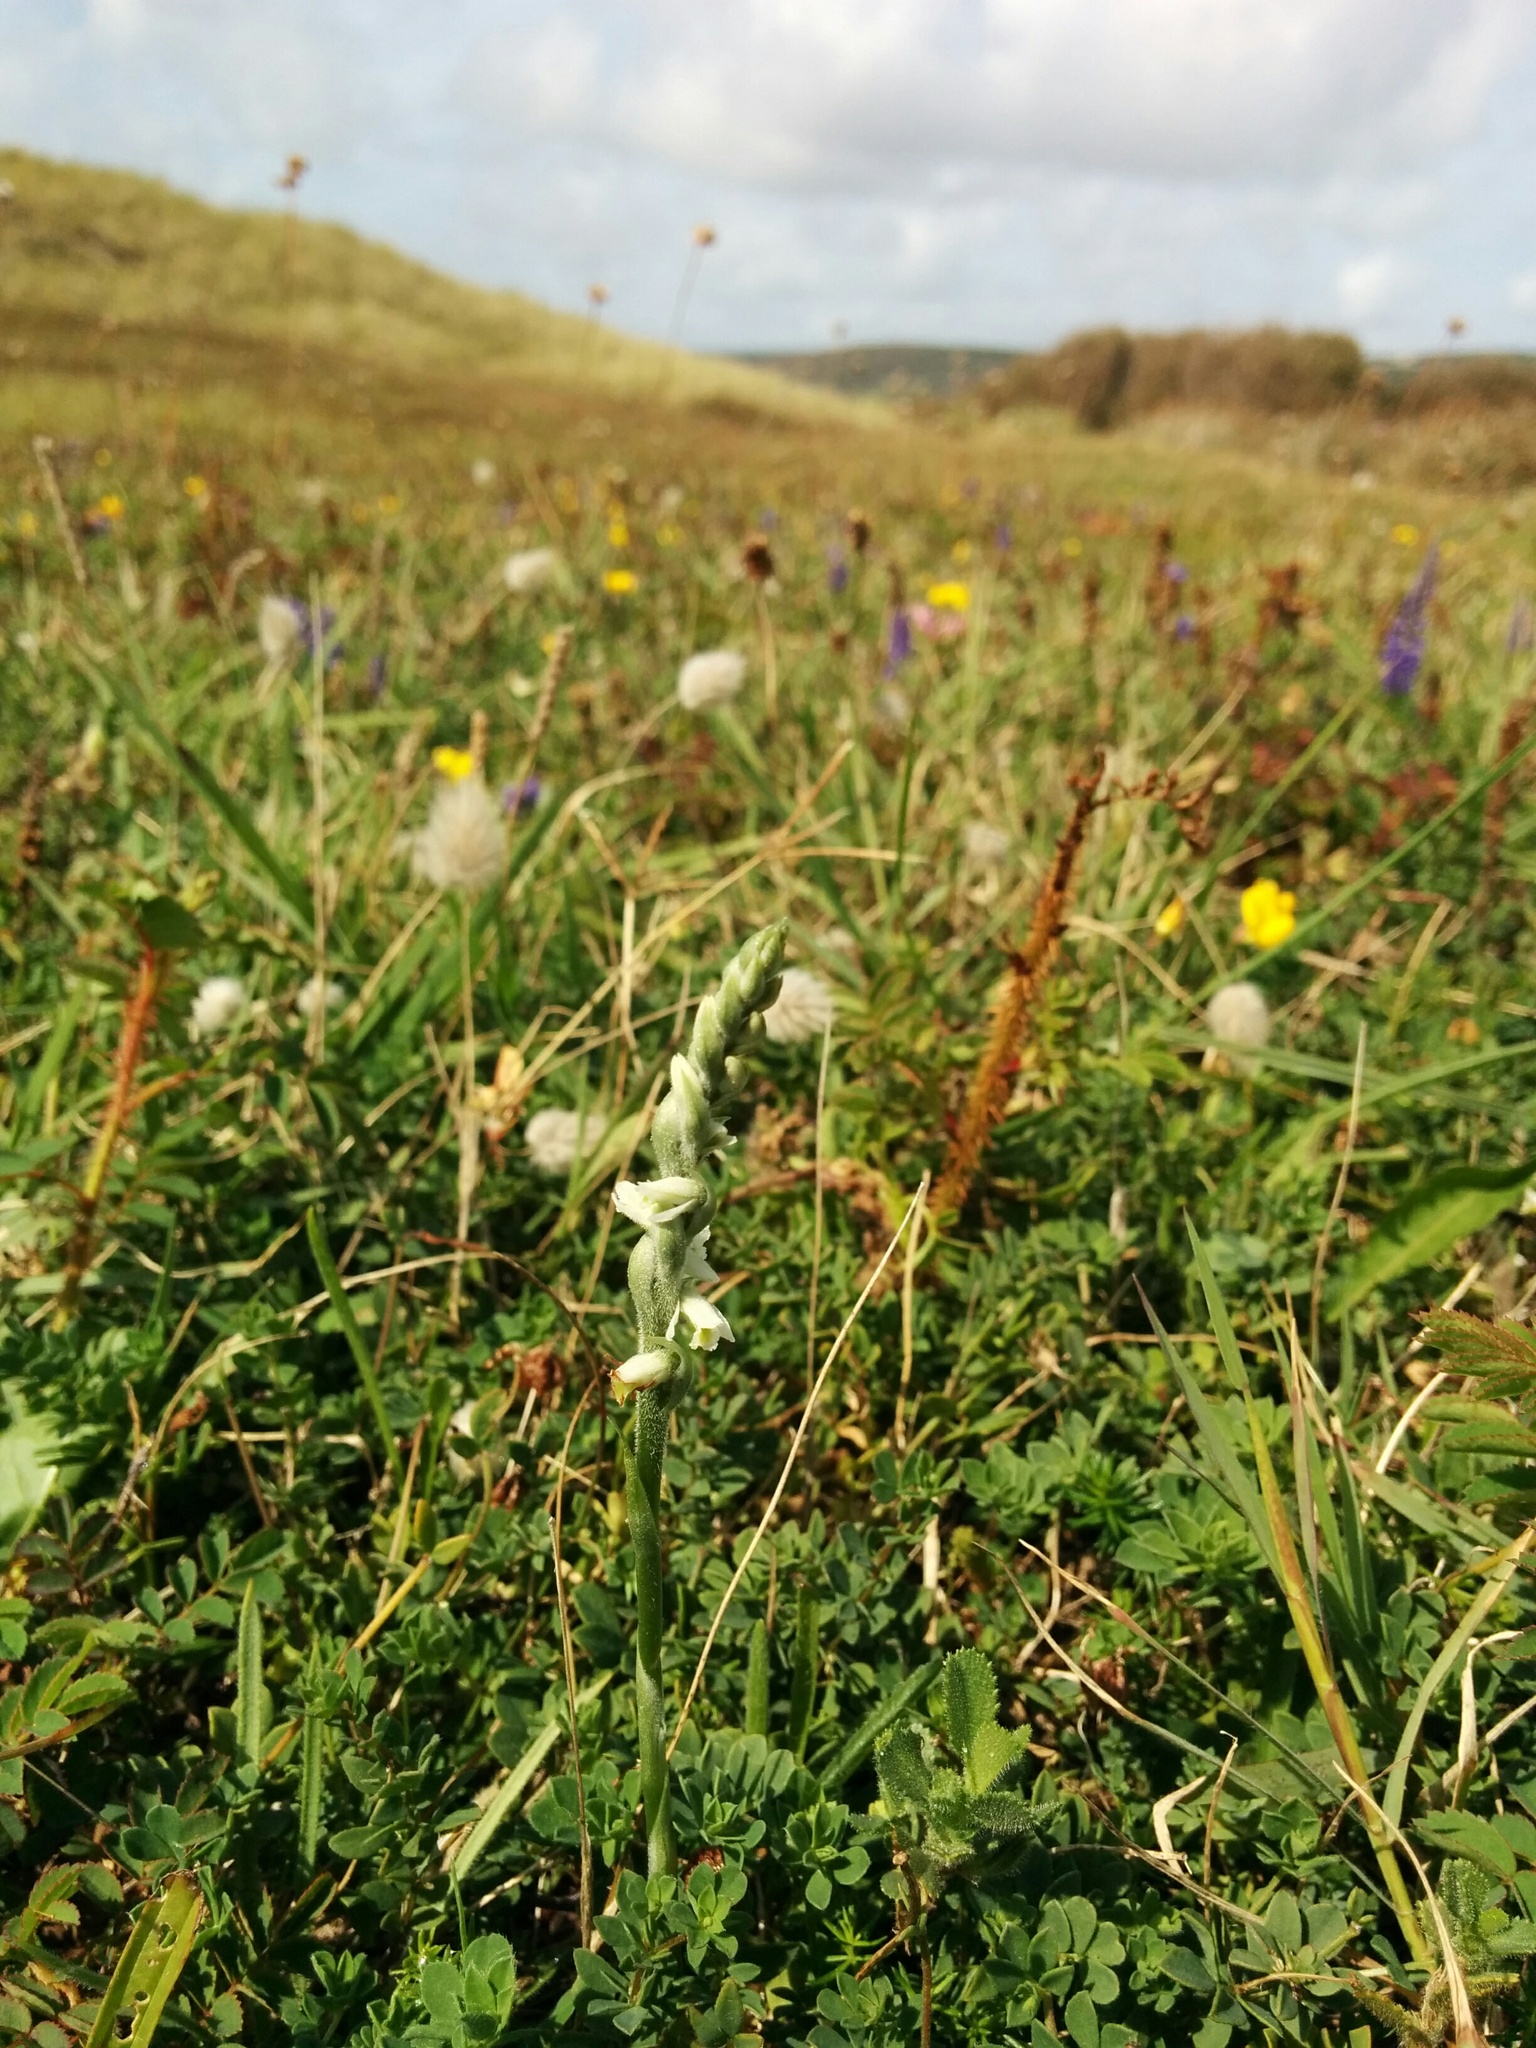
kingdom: Plantae
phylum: Tracheophyta
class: Liliopsida
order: Asparagales
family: Orchidaceae
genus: Spiranthes
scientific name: Spiranthes spiralis
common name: Autumn lady's-tresses
